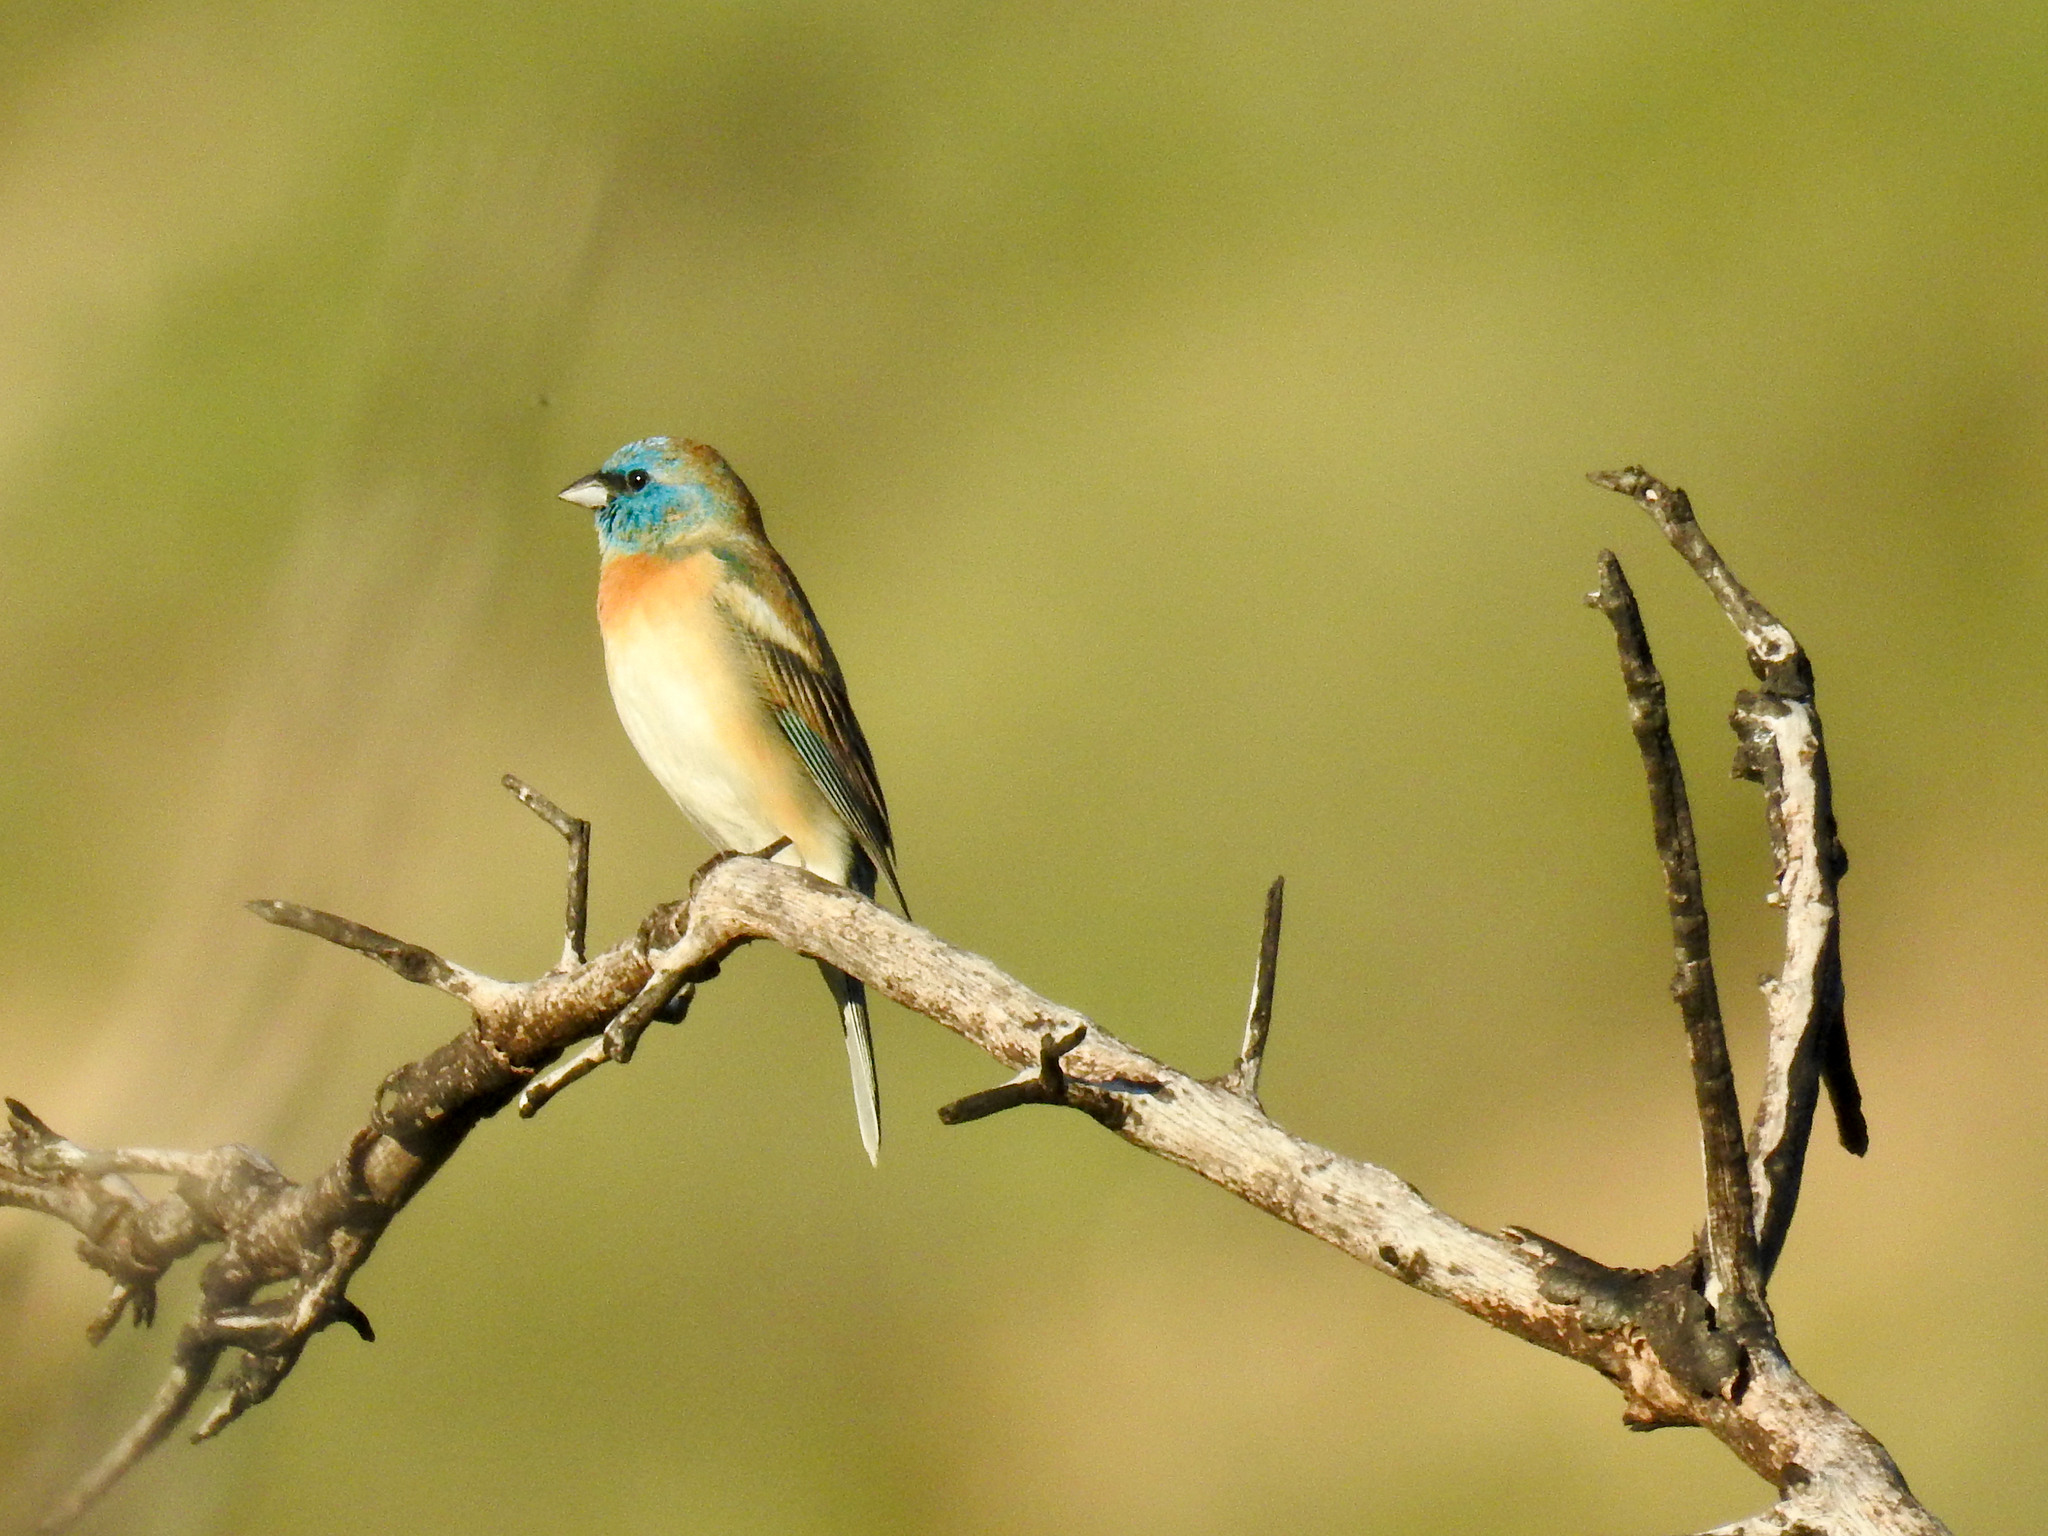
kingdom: Animalia
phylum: Chordata
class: Aves
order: Passeriformes
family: Cardinalidae
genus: Passerina
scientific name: Passerina amoena
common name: Lazuli bunting
